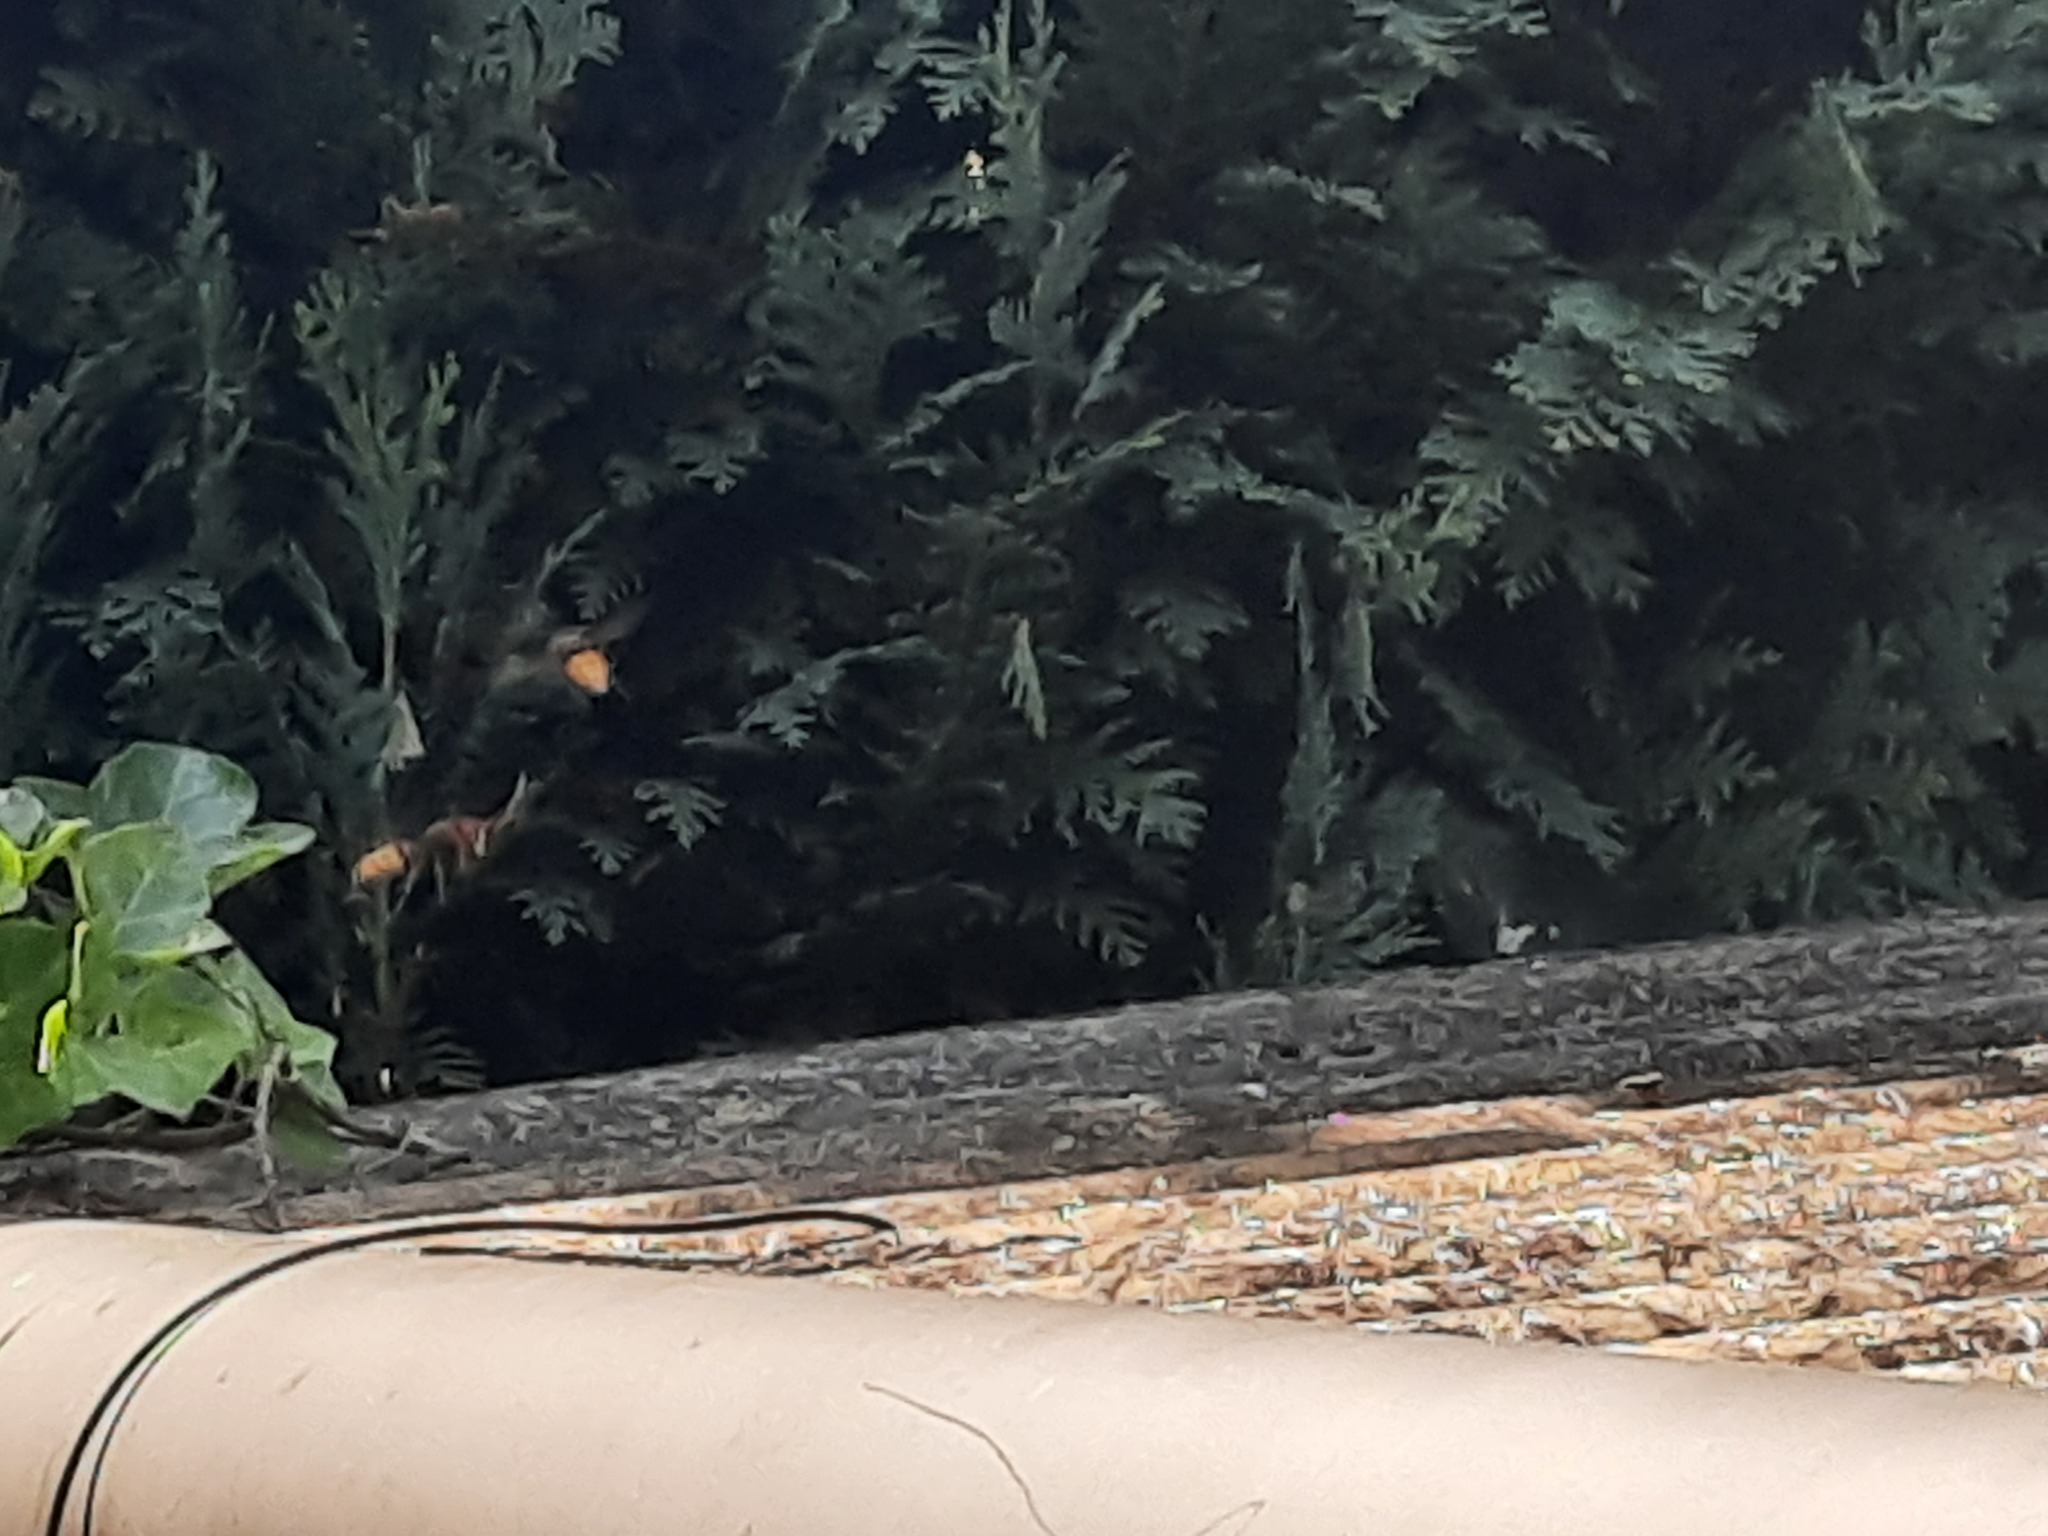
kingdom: Animalia
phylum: Arthropoda
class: Insecta
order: Hymenoptera
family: Vespidae
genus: Vespa
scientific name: Vespa crabro
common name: Hornet
